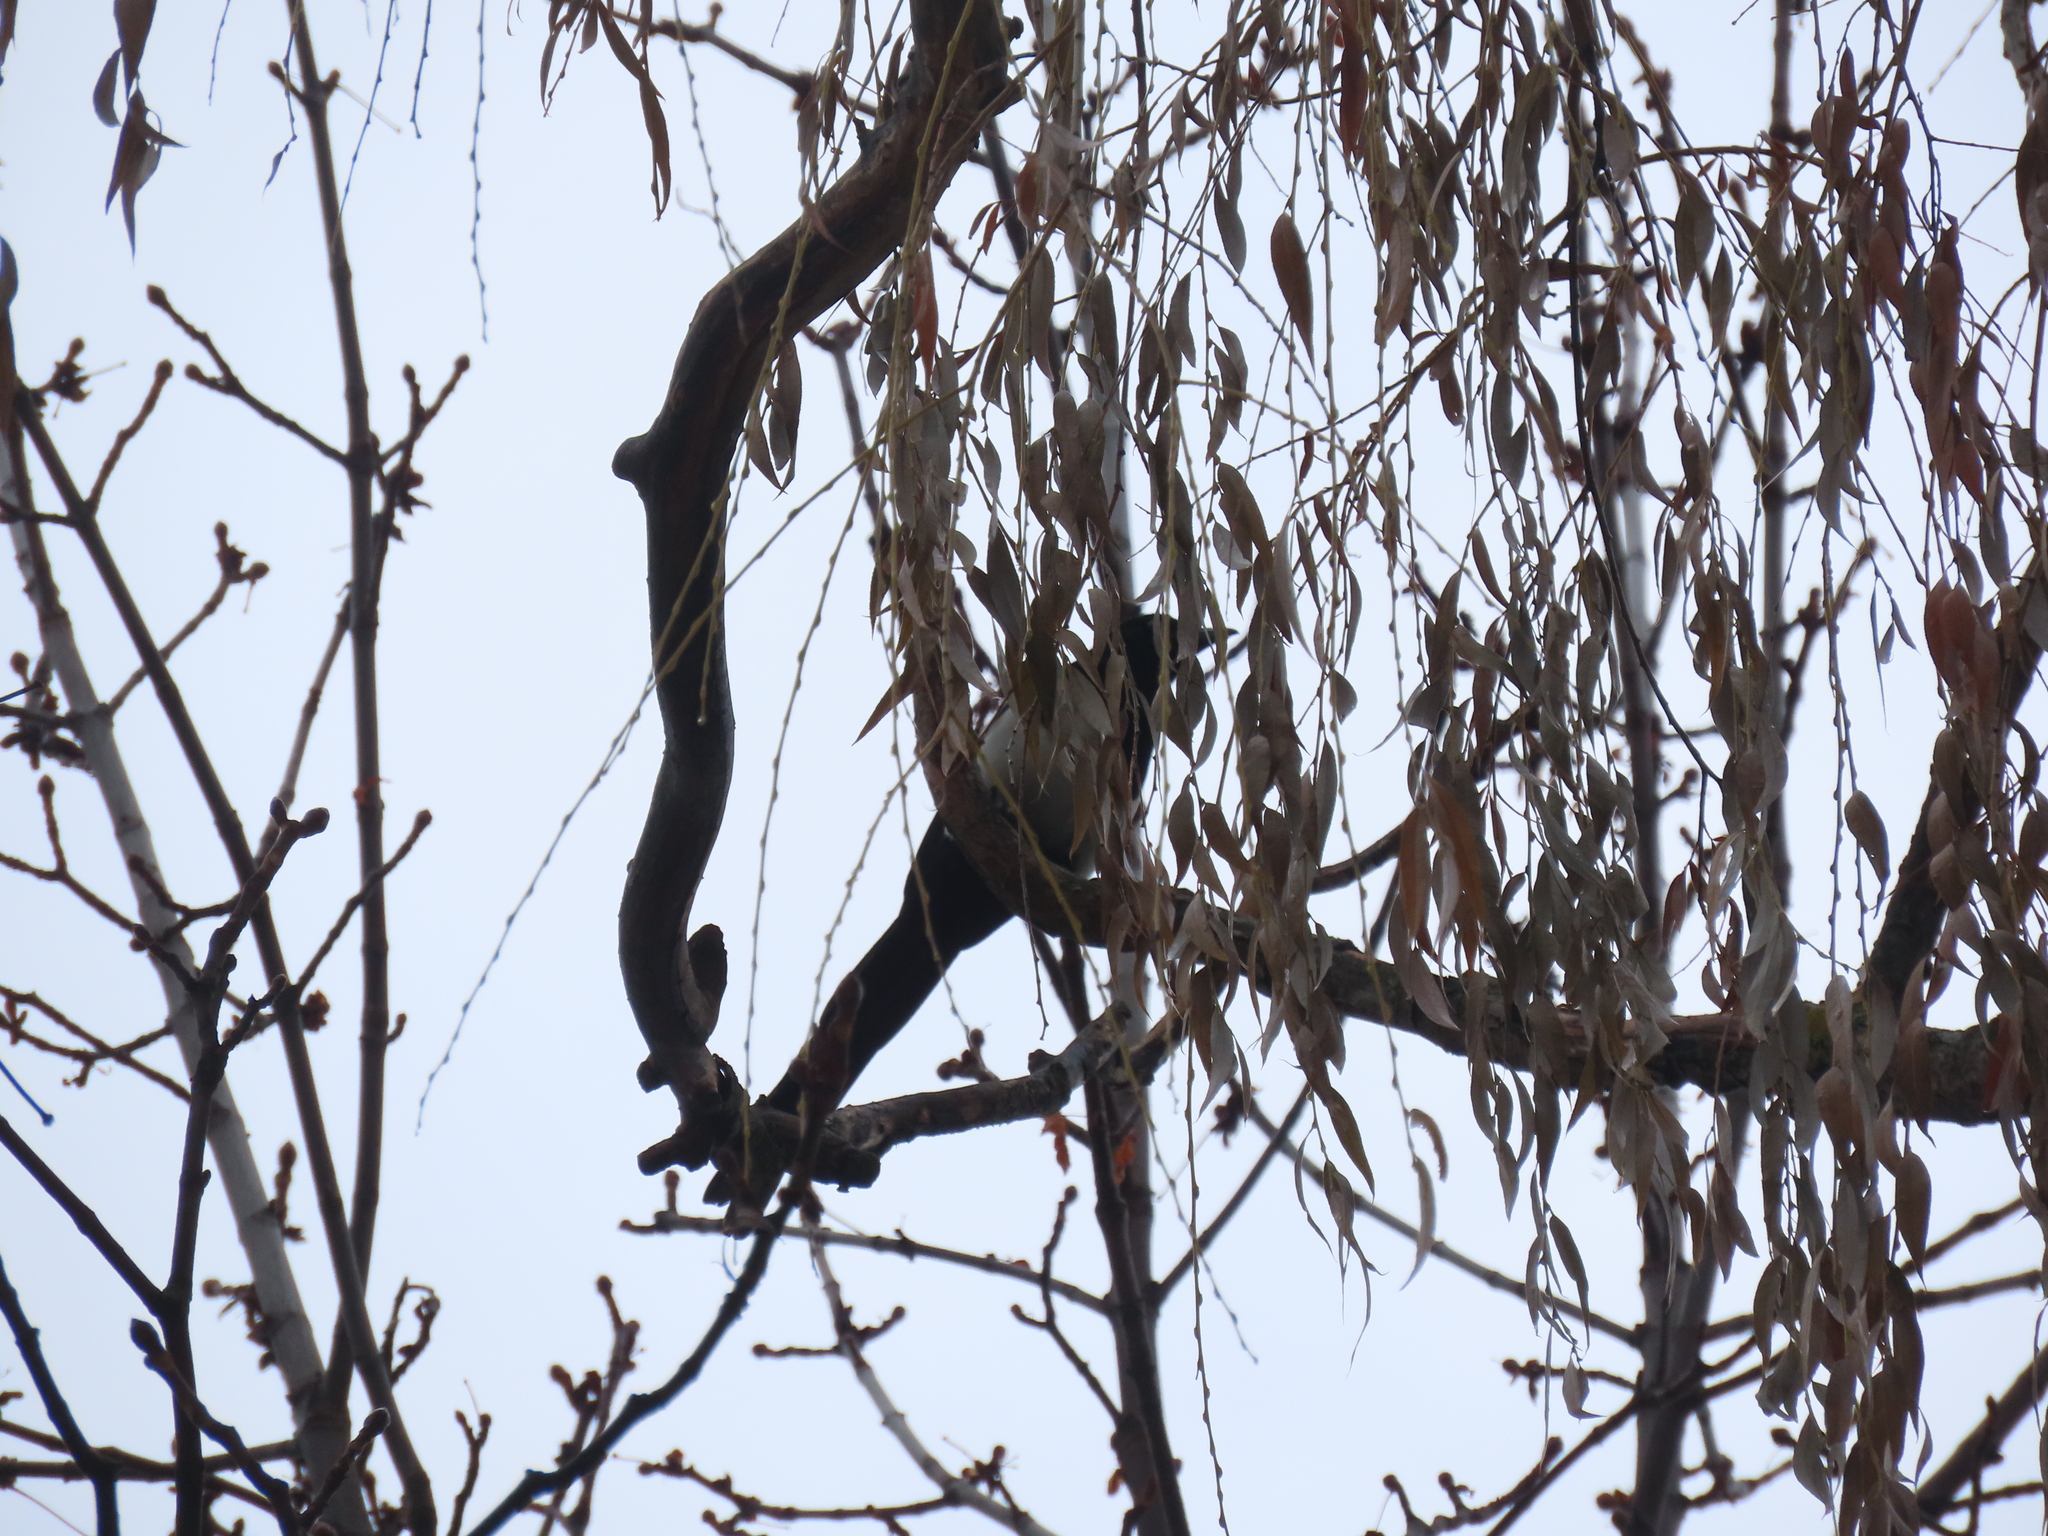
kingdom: Animalia
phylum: Chordata
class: Aves
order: Passeriformes
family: Corvidae
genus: Pica
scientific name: Pica hudsonia
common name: Black-billed magpie
